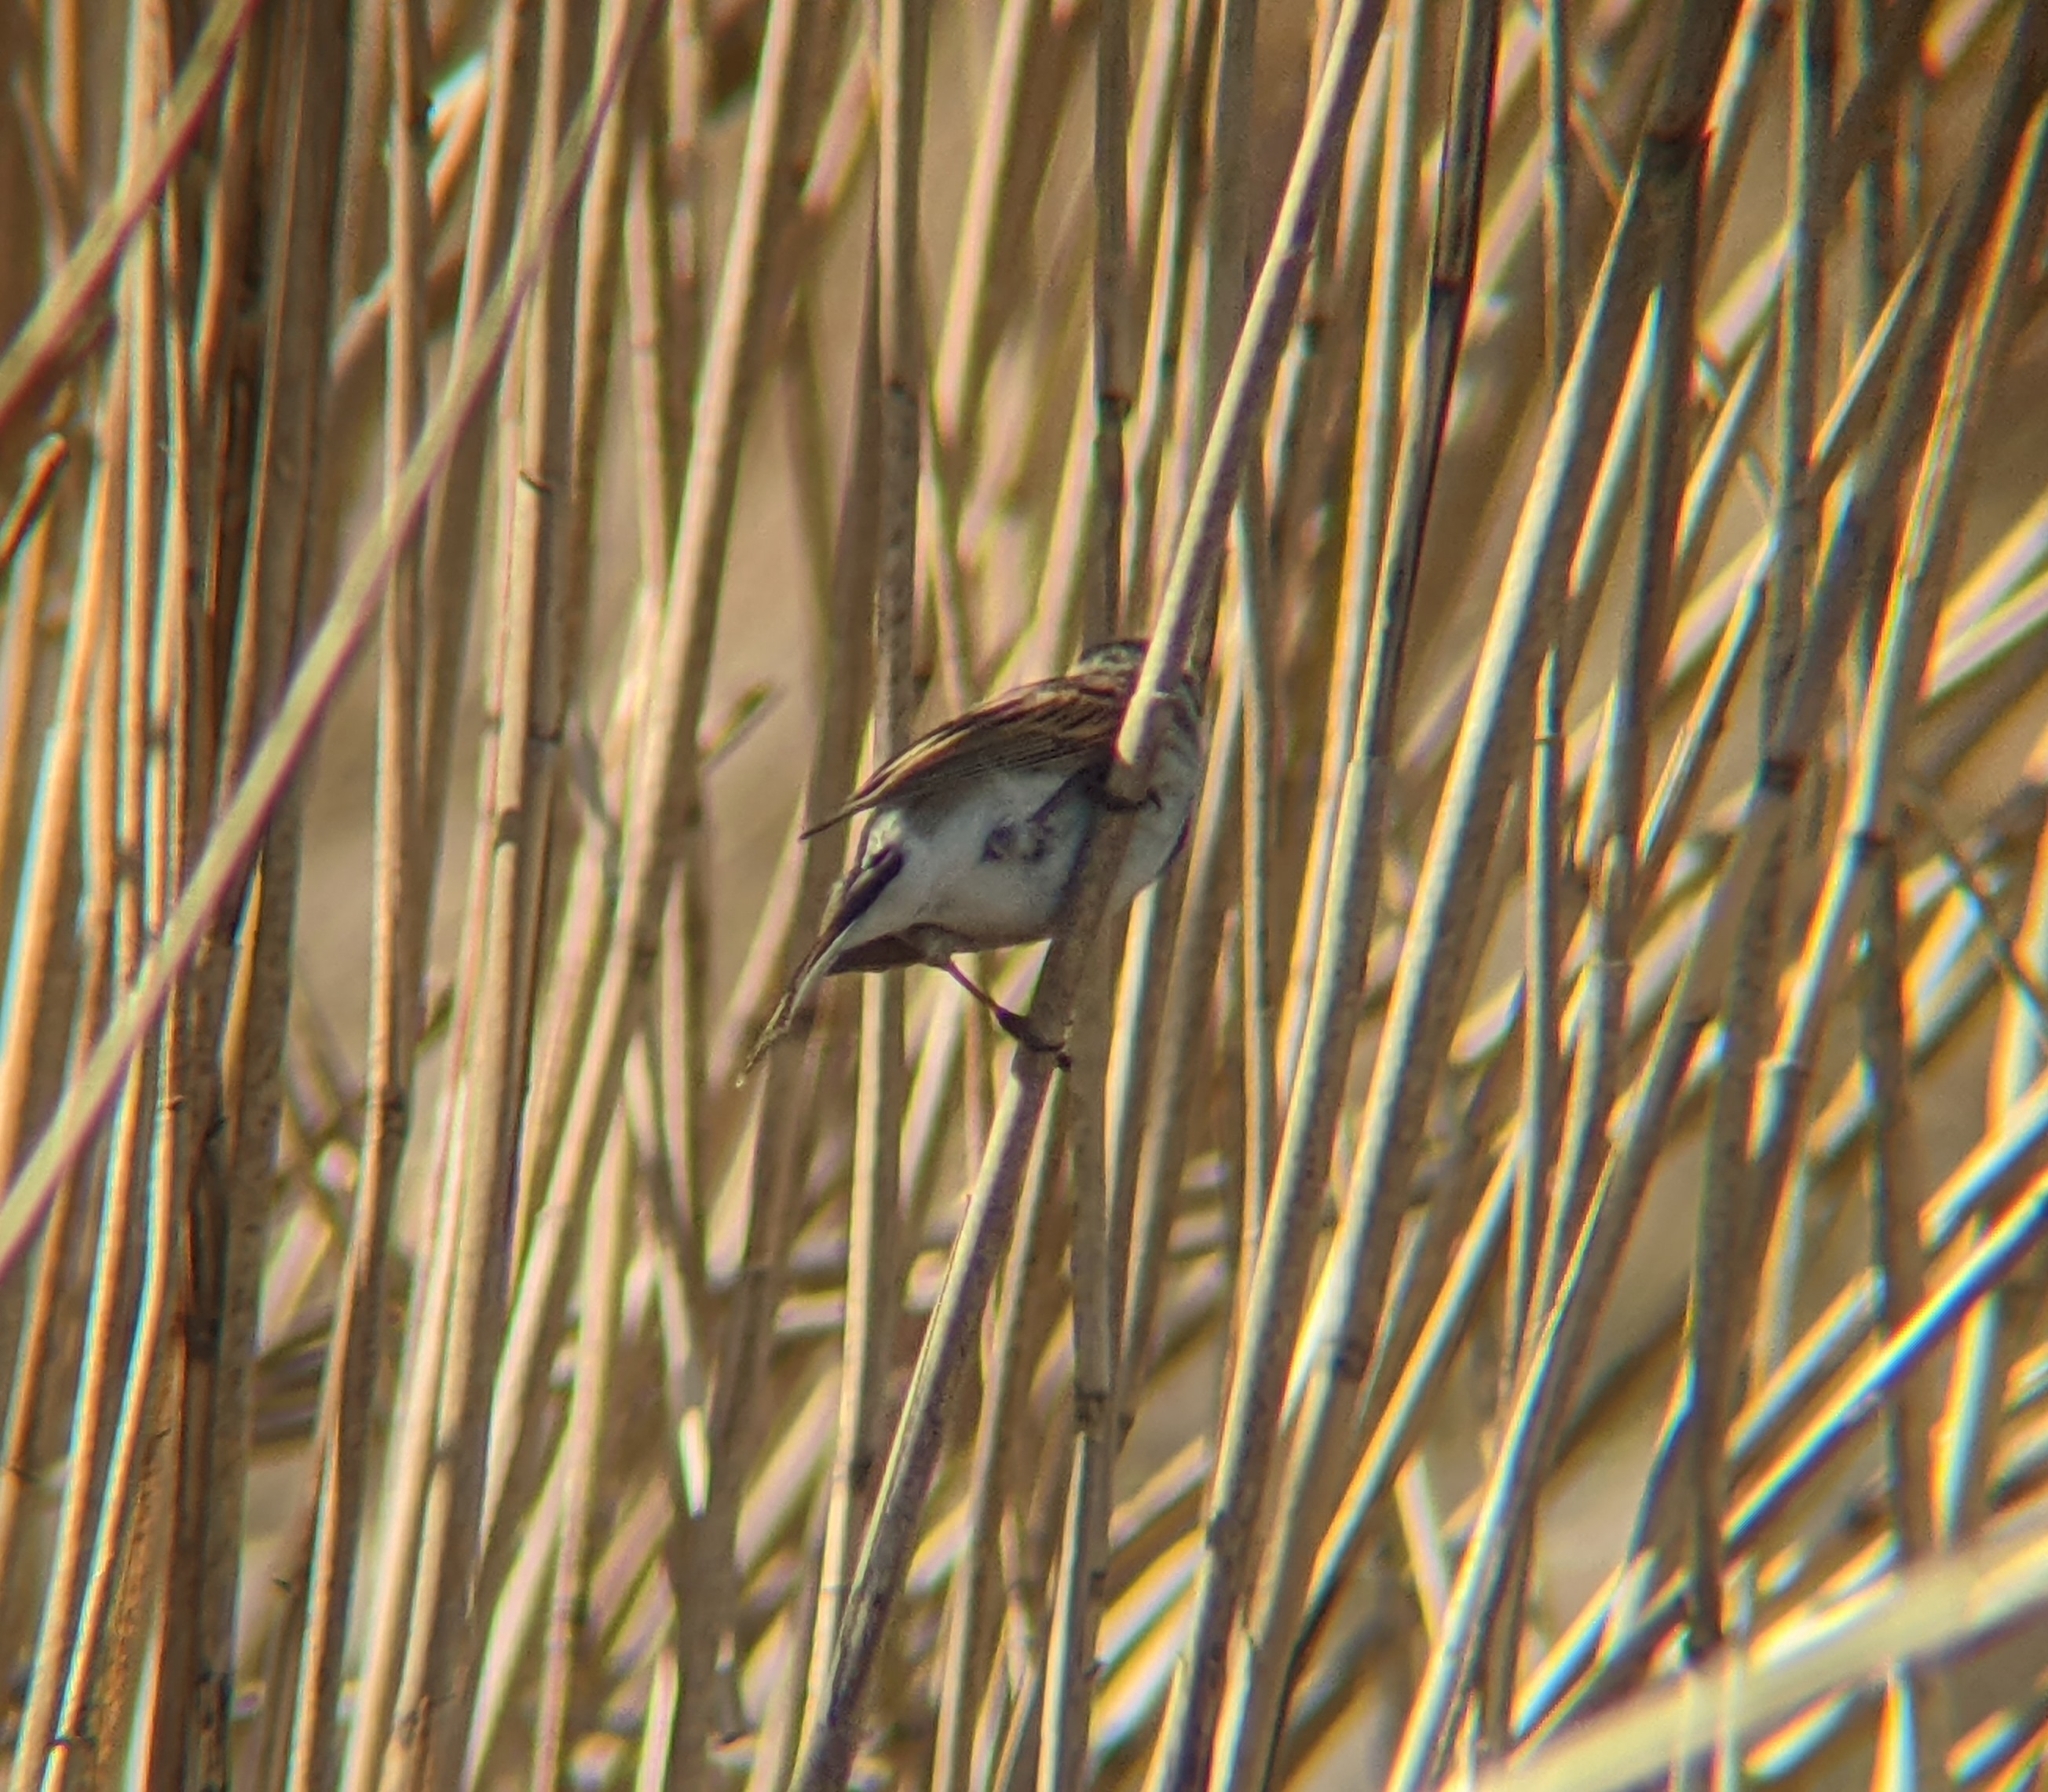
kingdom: Animalia
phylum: Chordata
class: Aves
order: Passeriformes
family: Emberizidae
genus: Emberiza
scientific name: Emberiza schoeniclus
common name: Reed bunting
